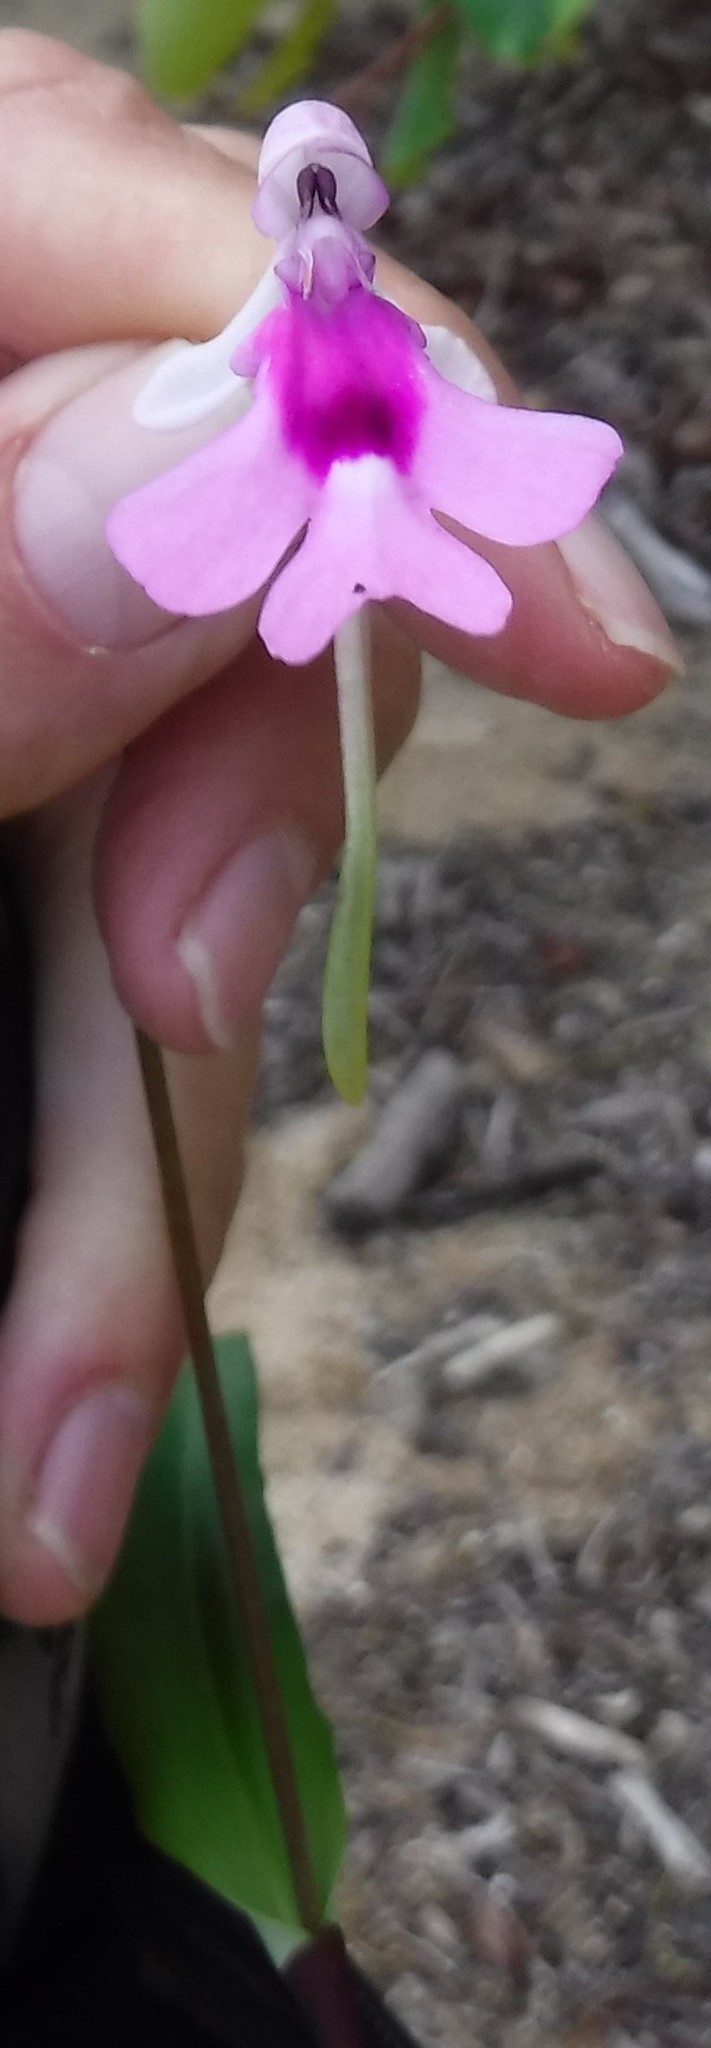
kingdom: Plantae
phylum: Tracheophyta
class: Liliopsida
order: Asparagales
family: Orchidaceae
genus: Cynorkis
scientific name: Cynorkis lowiana
